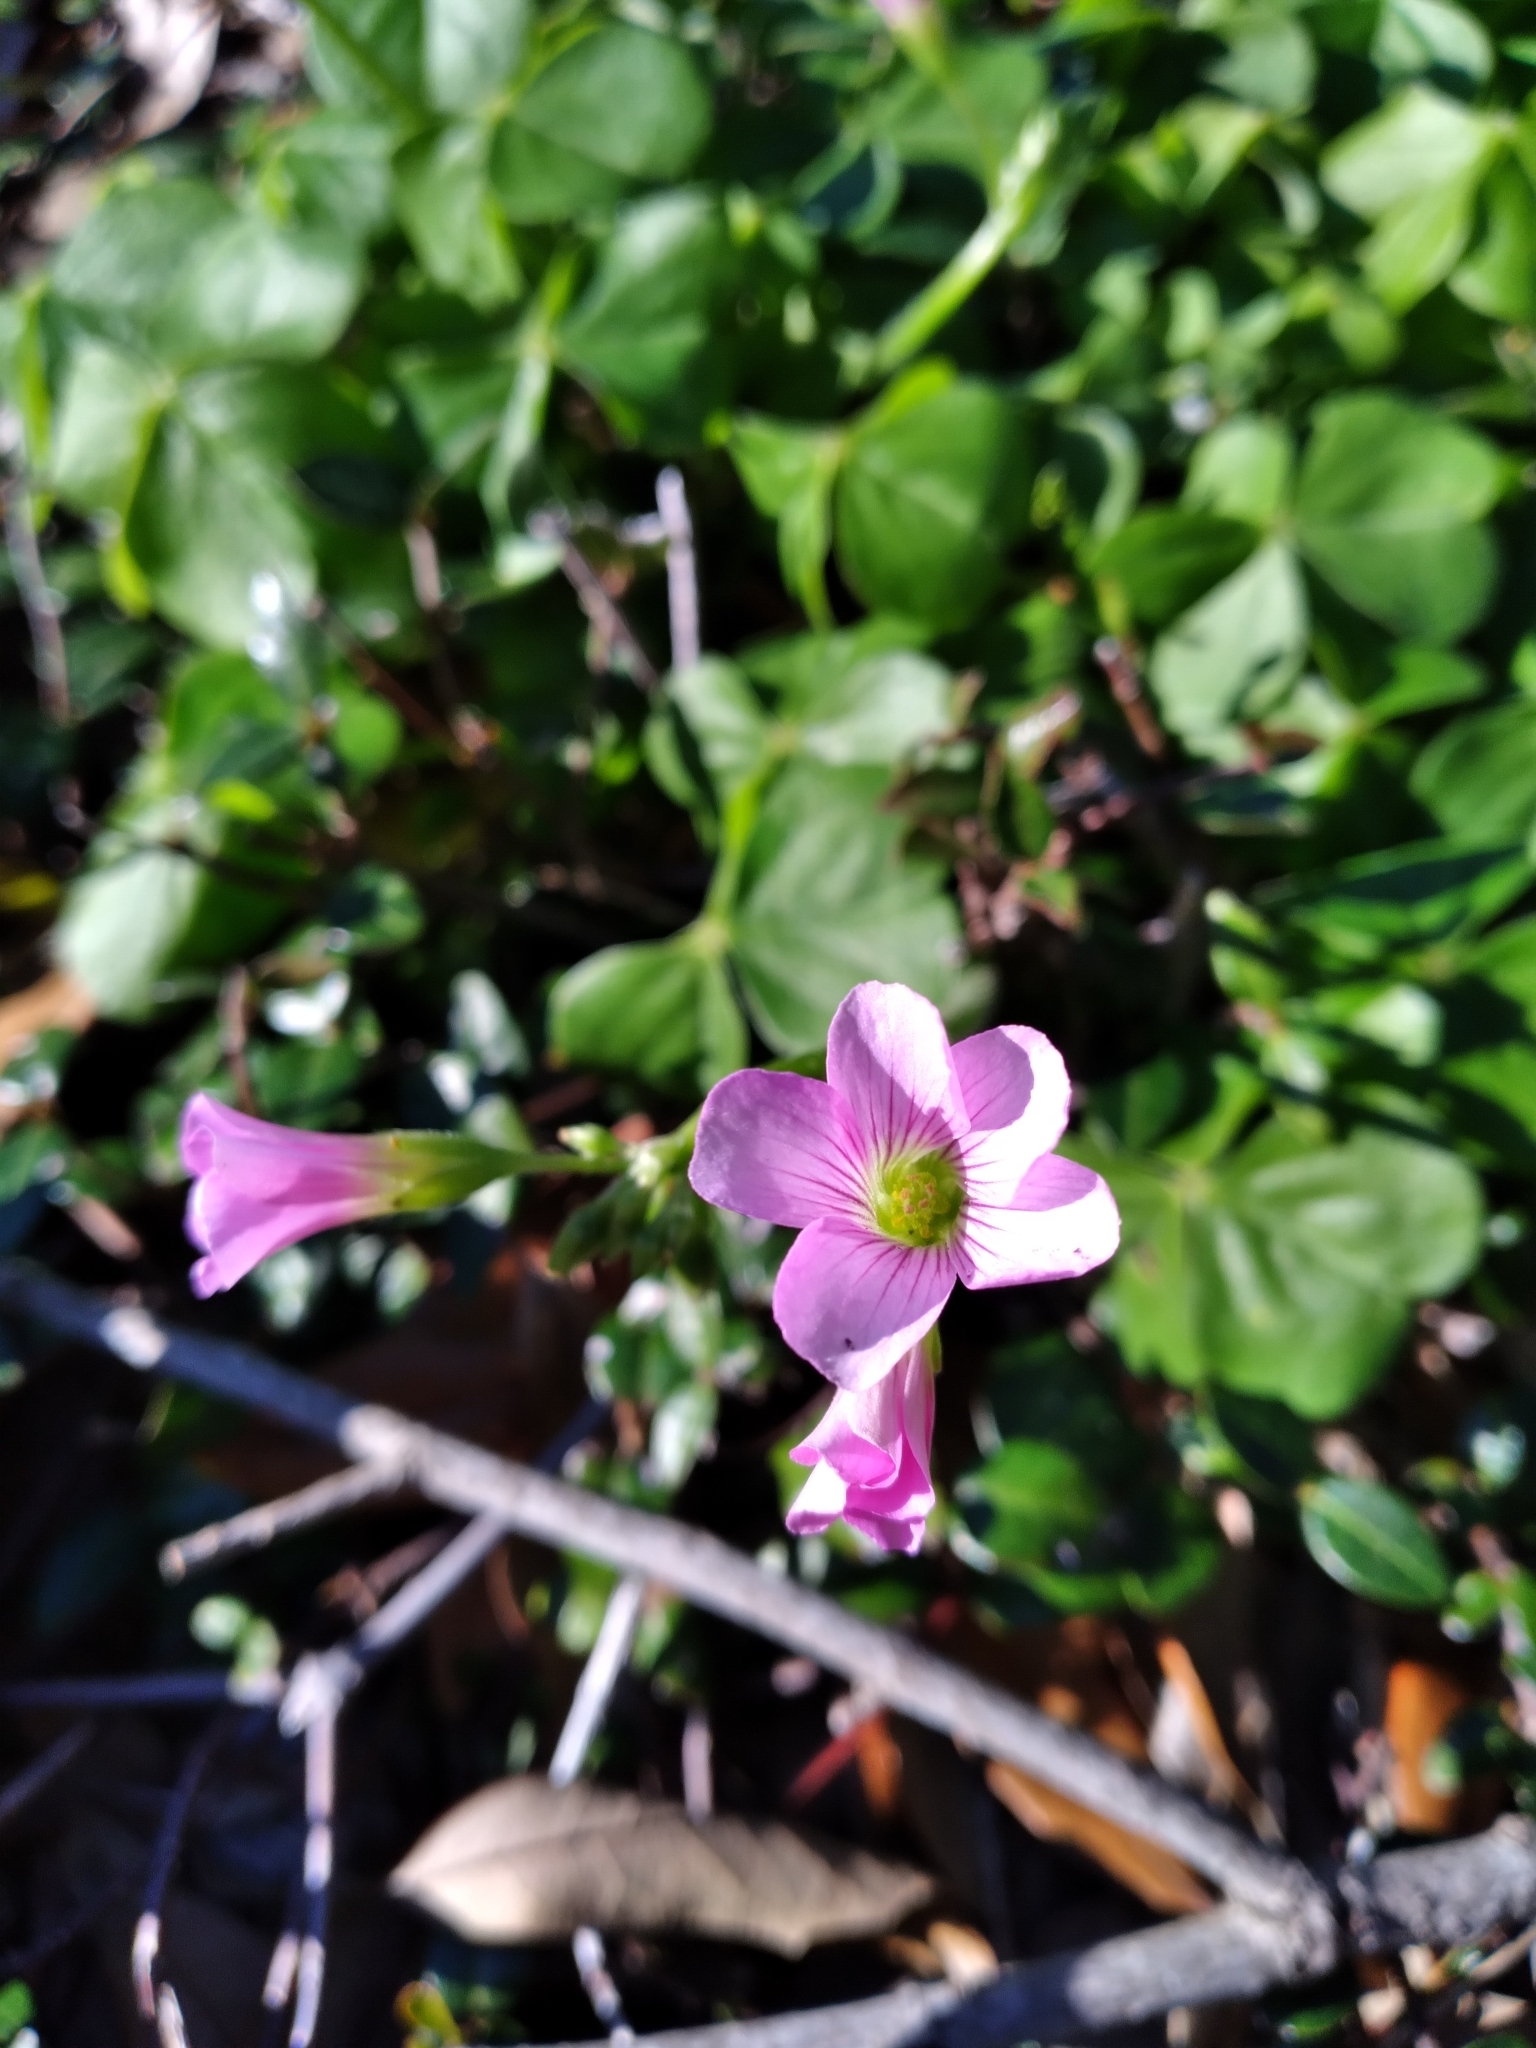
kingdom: Plantae
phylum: Tracheophyta
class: Magnoliopsida
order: Oxalidales
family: Oxalidaceae
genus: Oxalis
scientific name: Oxalis debilis
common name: Large-flowered pink-sorrel
